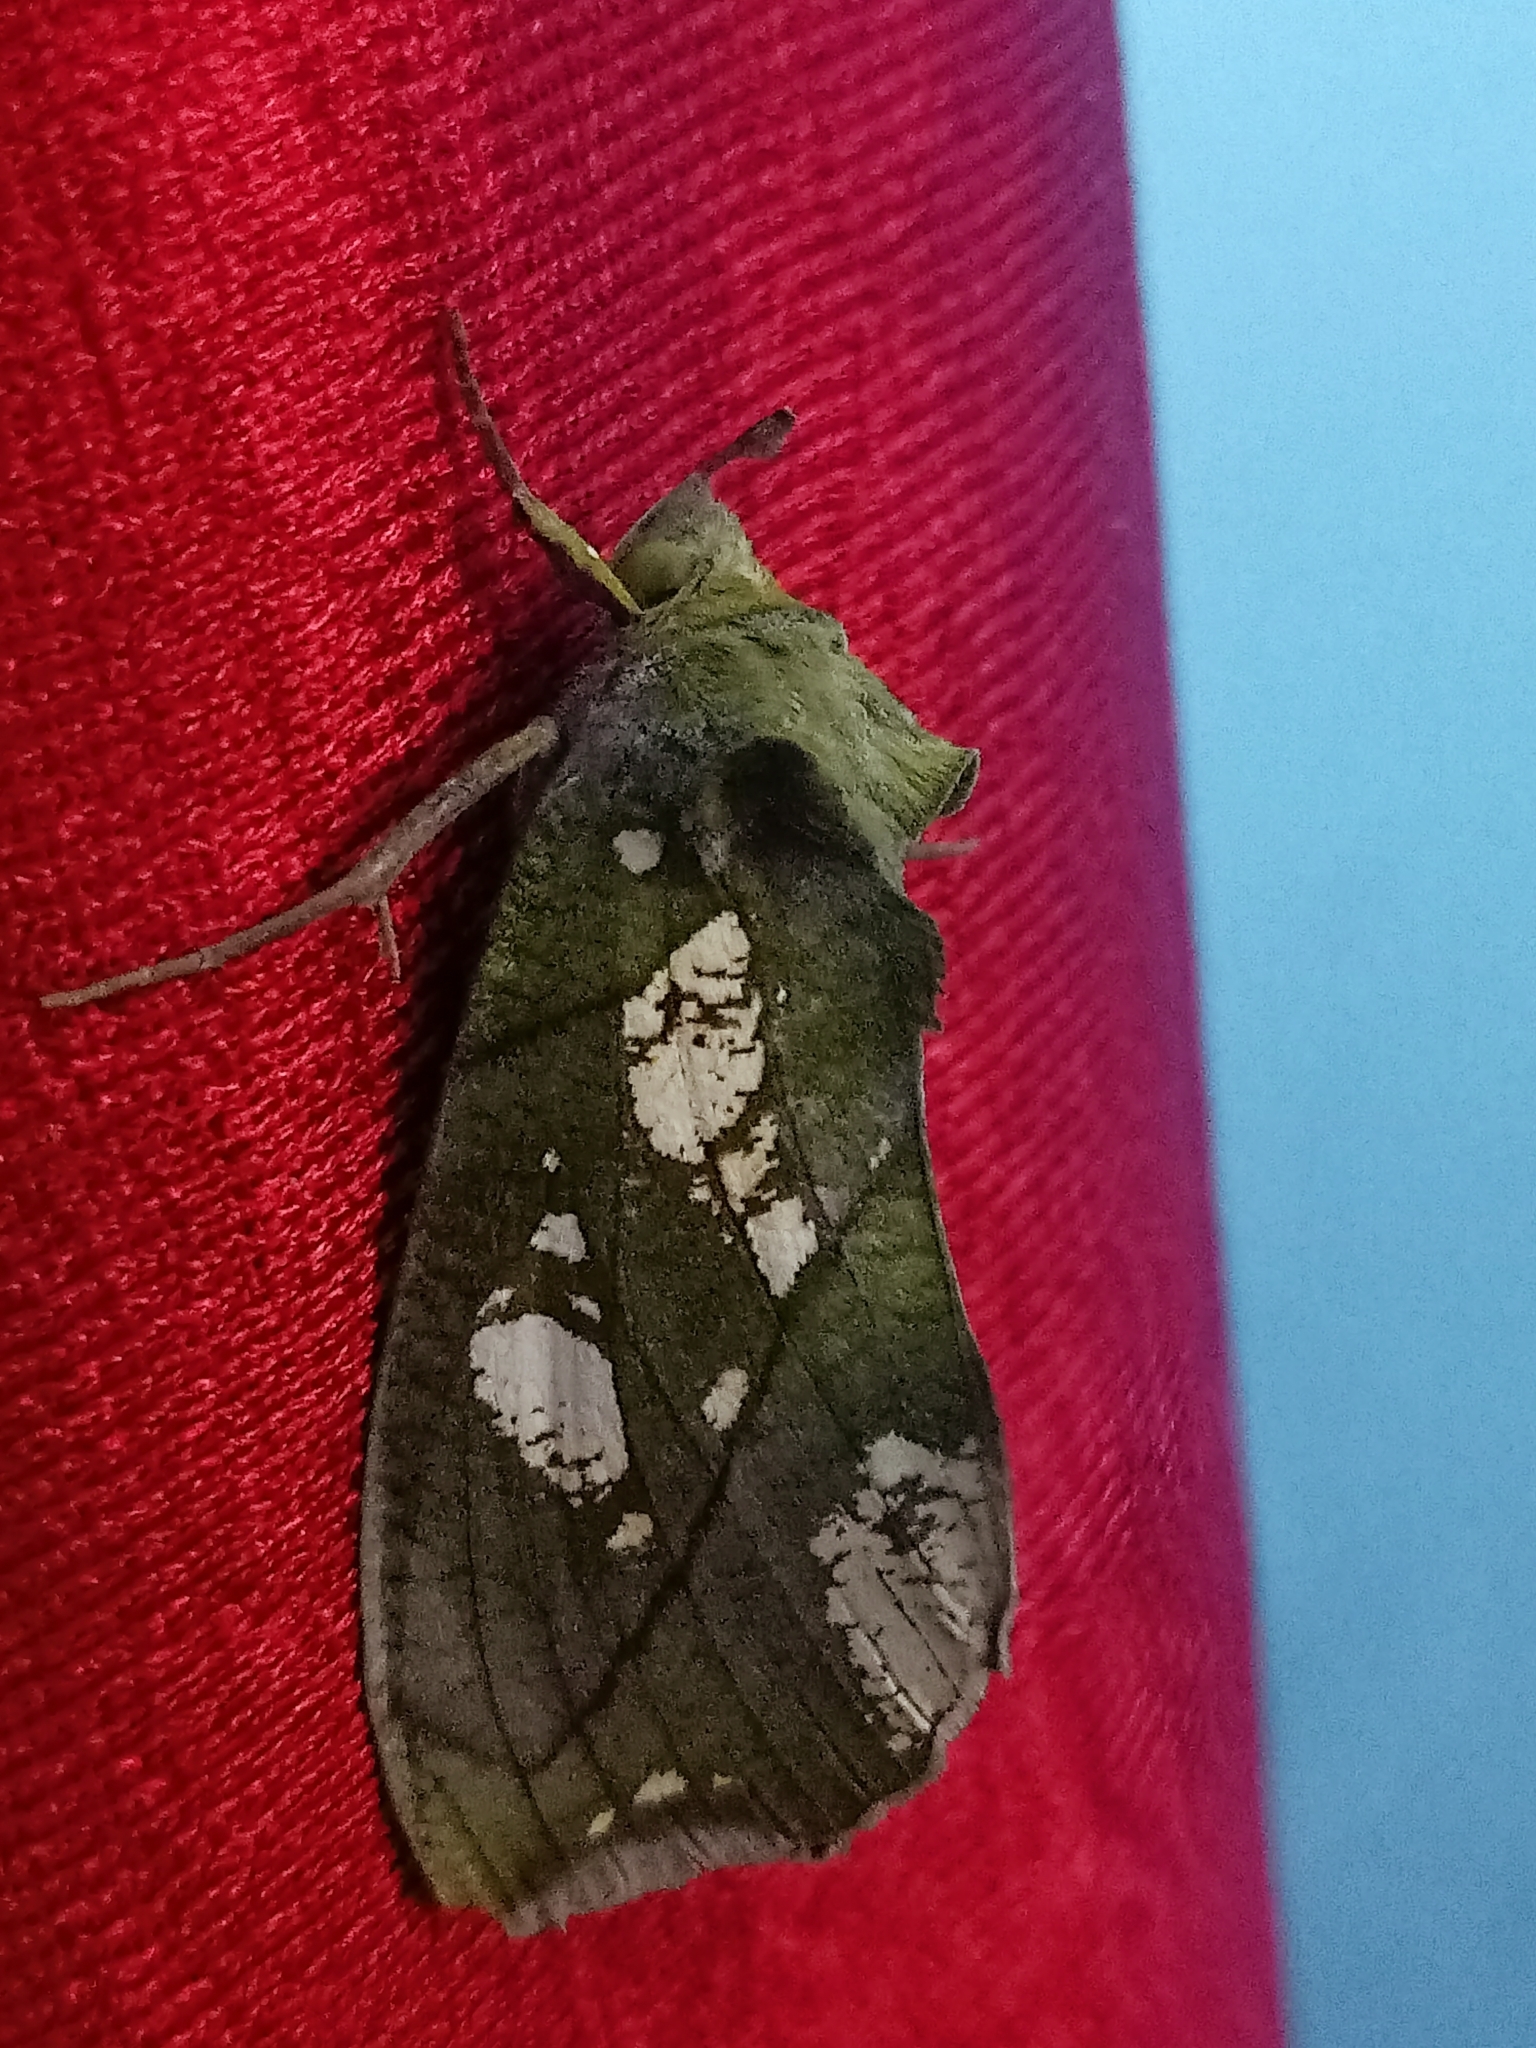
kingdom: Animalia
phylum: Arthropoda
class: Insecta
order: Lepidoptera
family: Erebidae
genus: Eudocima
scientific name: Eudocima hypermnestra
